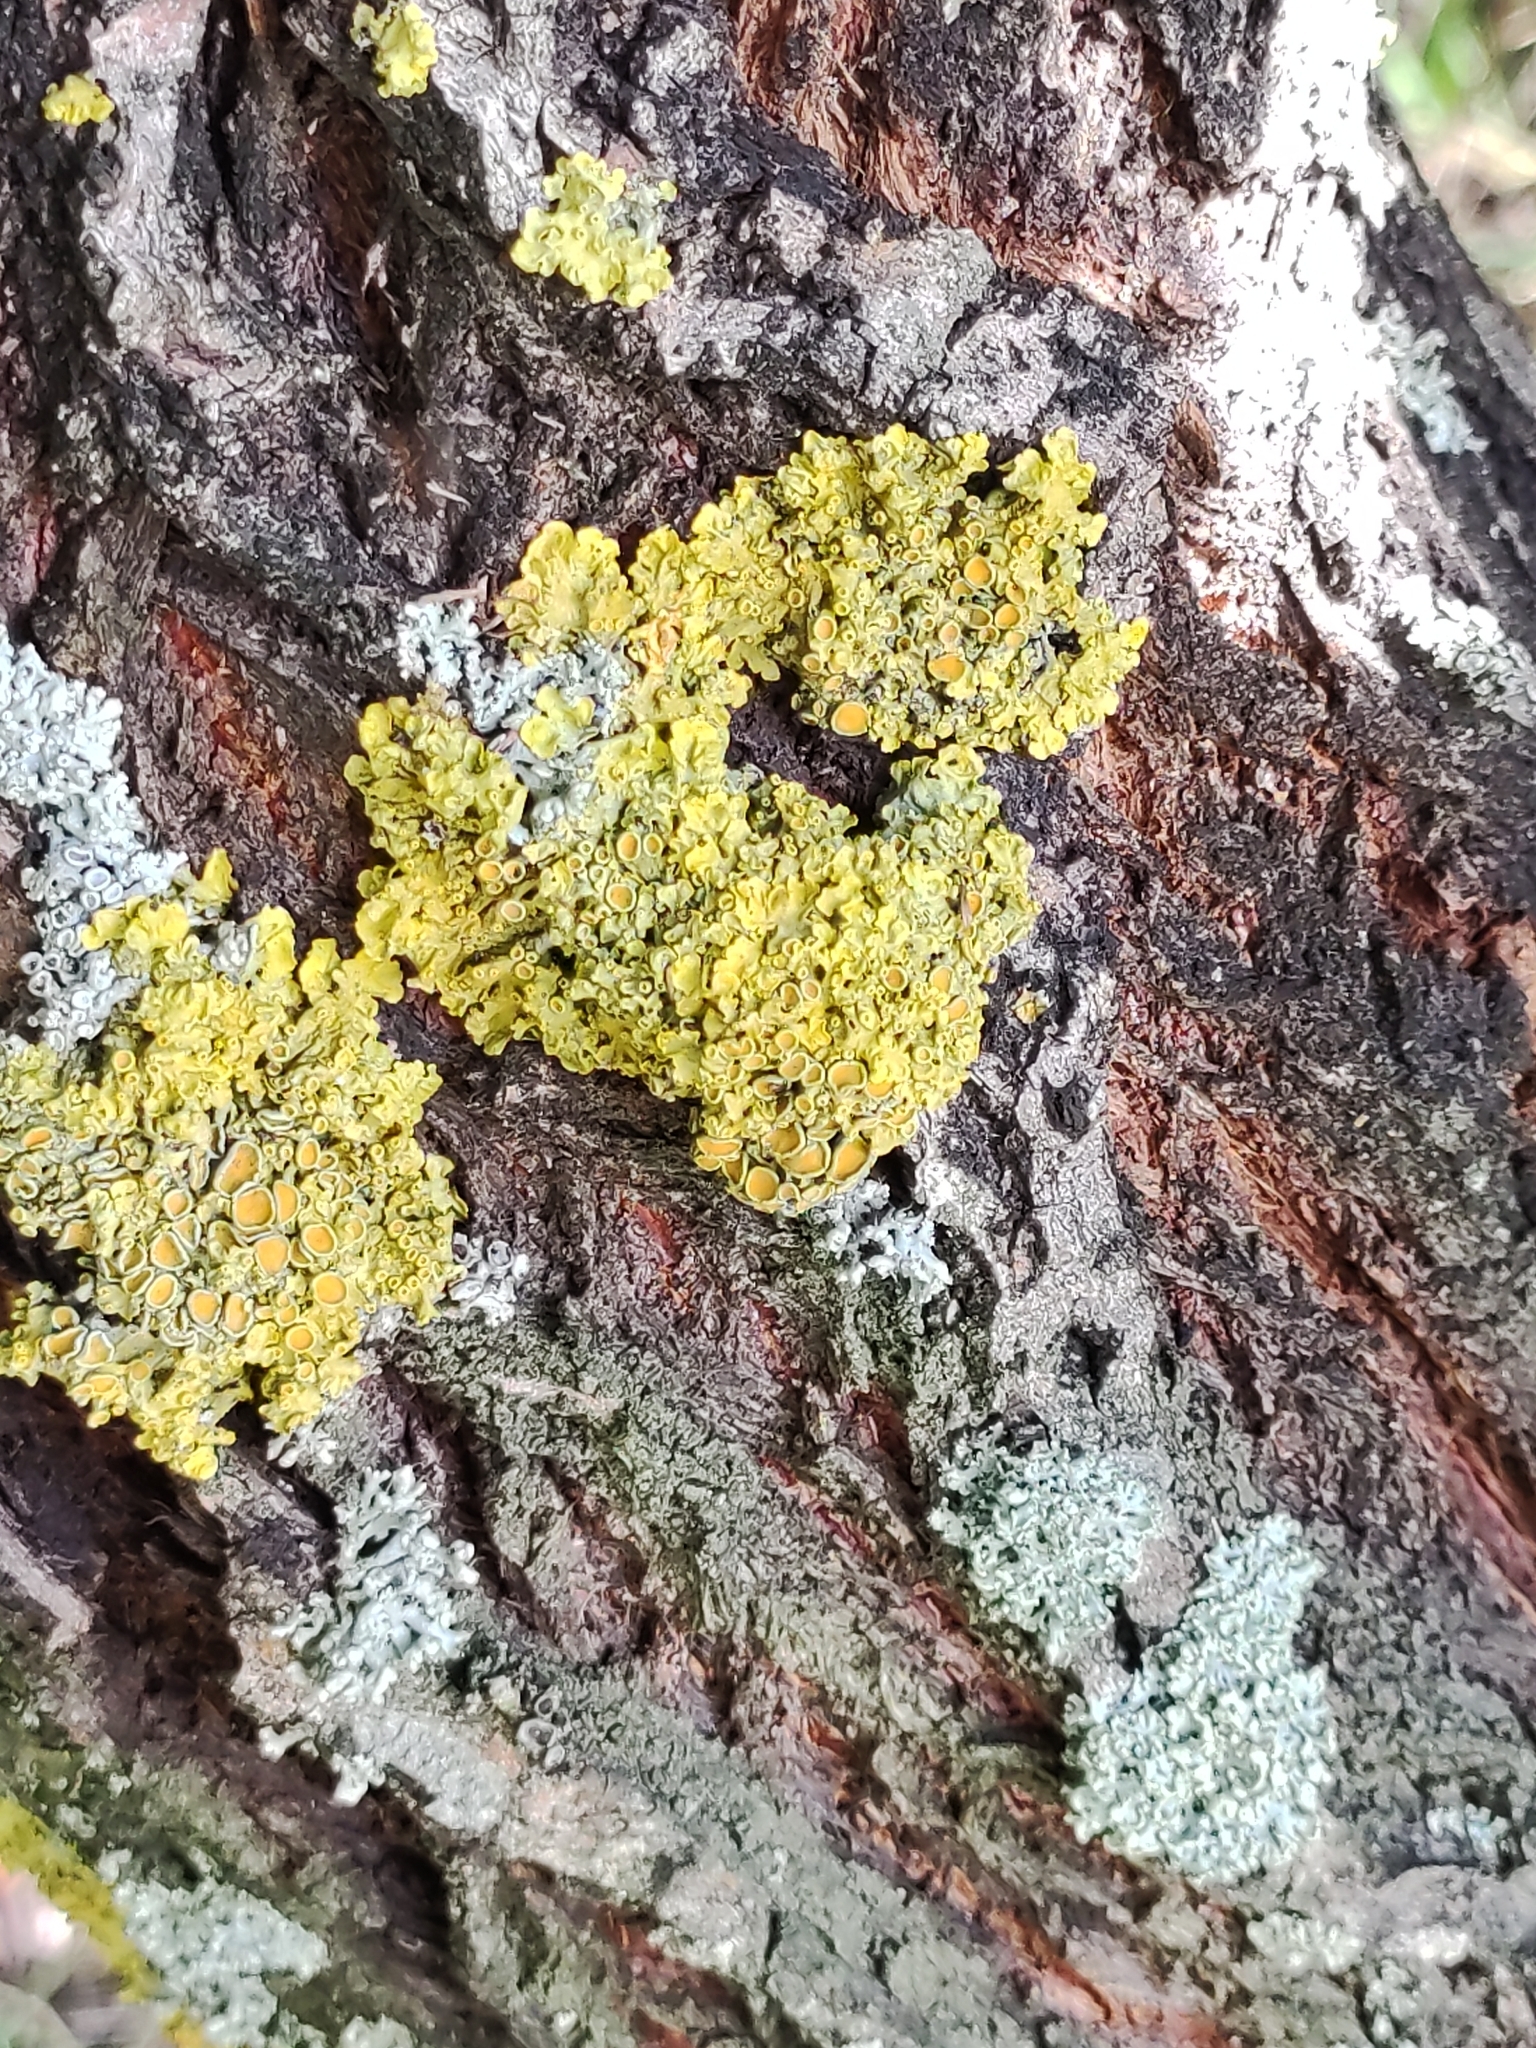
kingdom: Fungi
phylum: Ascomycota
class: Lecanoromycetes
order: Teloschistales
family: Teloschistaceae
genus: Xanthoria
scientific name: Xanthoria parietina
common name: Common orange lichen
